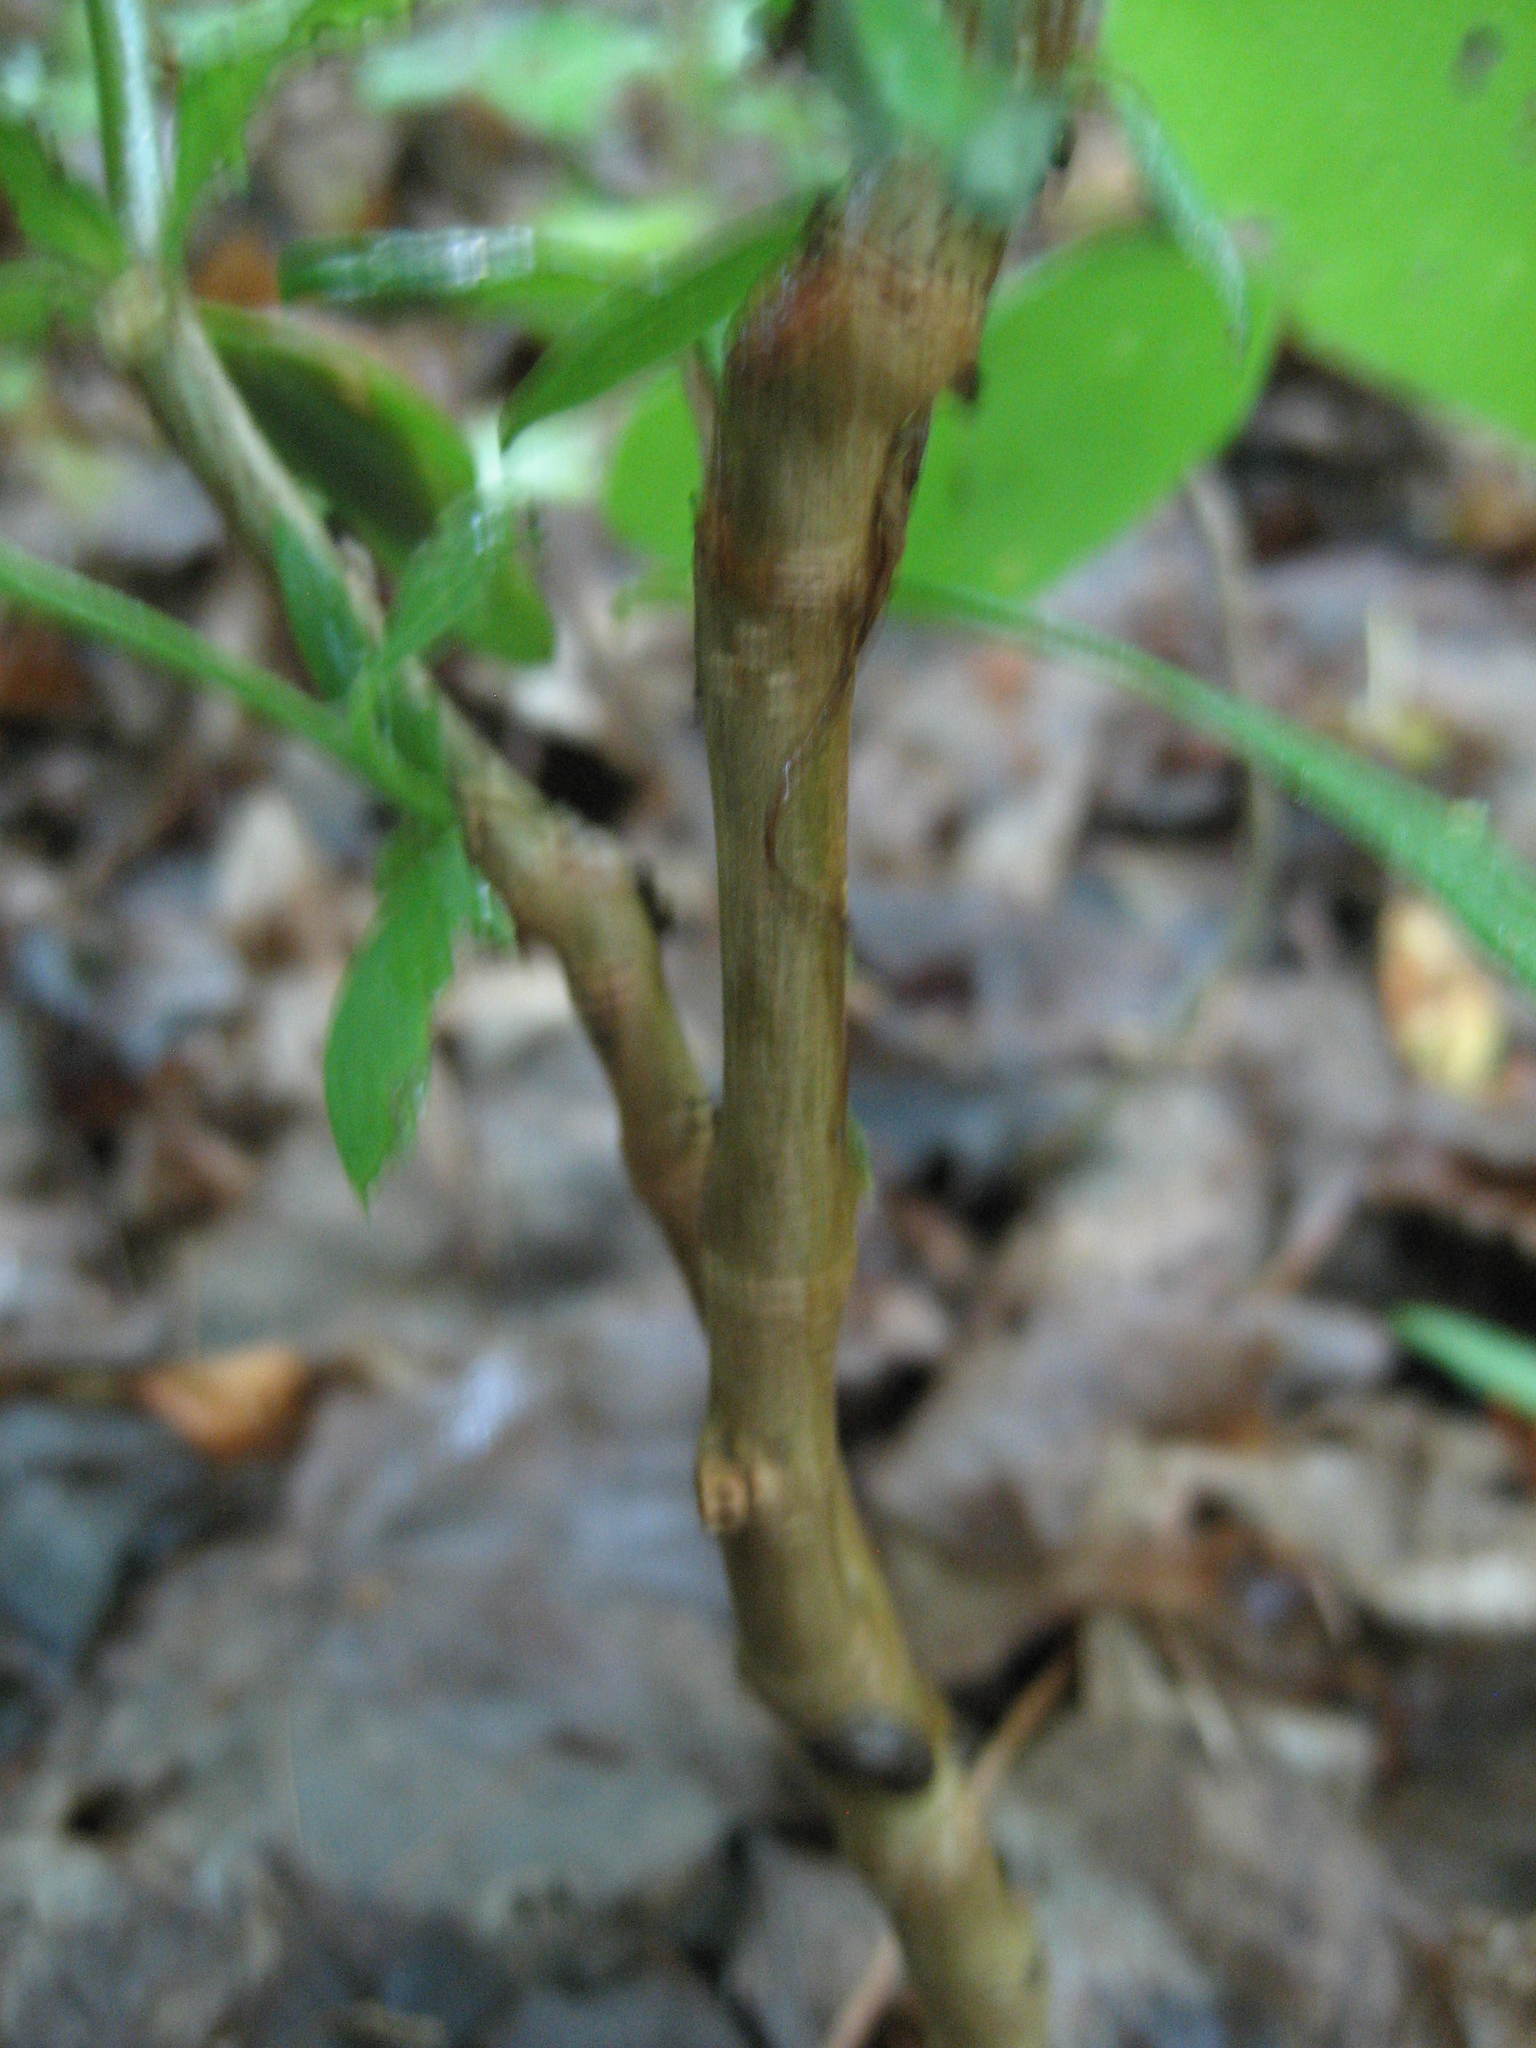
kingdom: Plantae
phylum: Tracheophyta
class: Magnoliopsida
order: Malvales
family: Thymelaeaceae
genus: Dirca
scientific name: Dirca palustris
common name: Leatherwood
